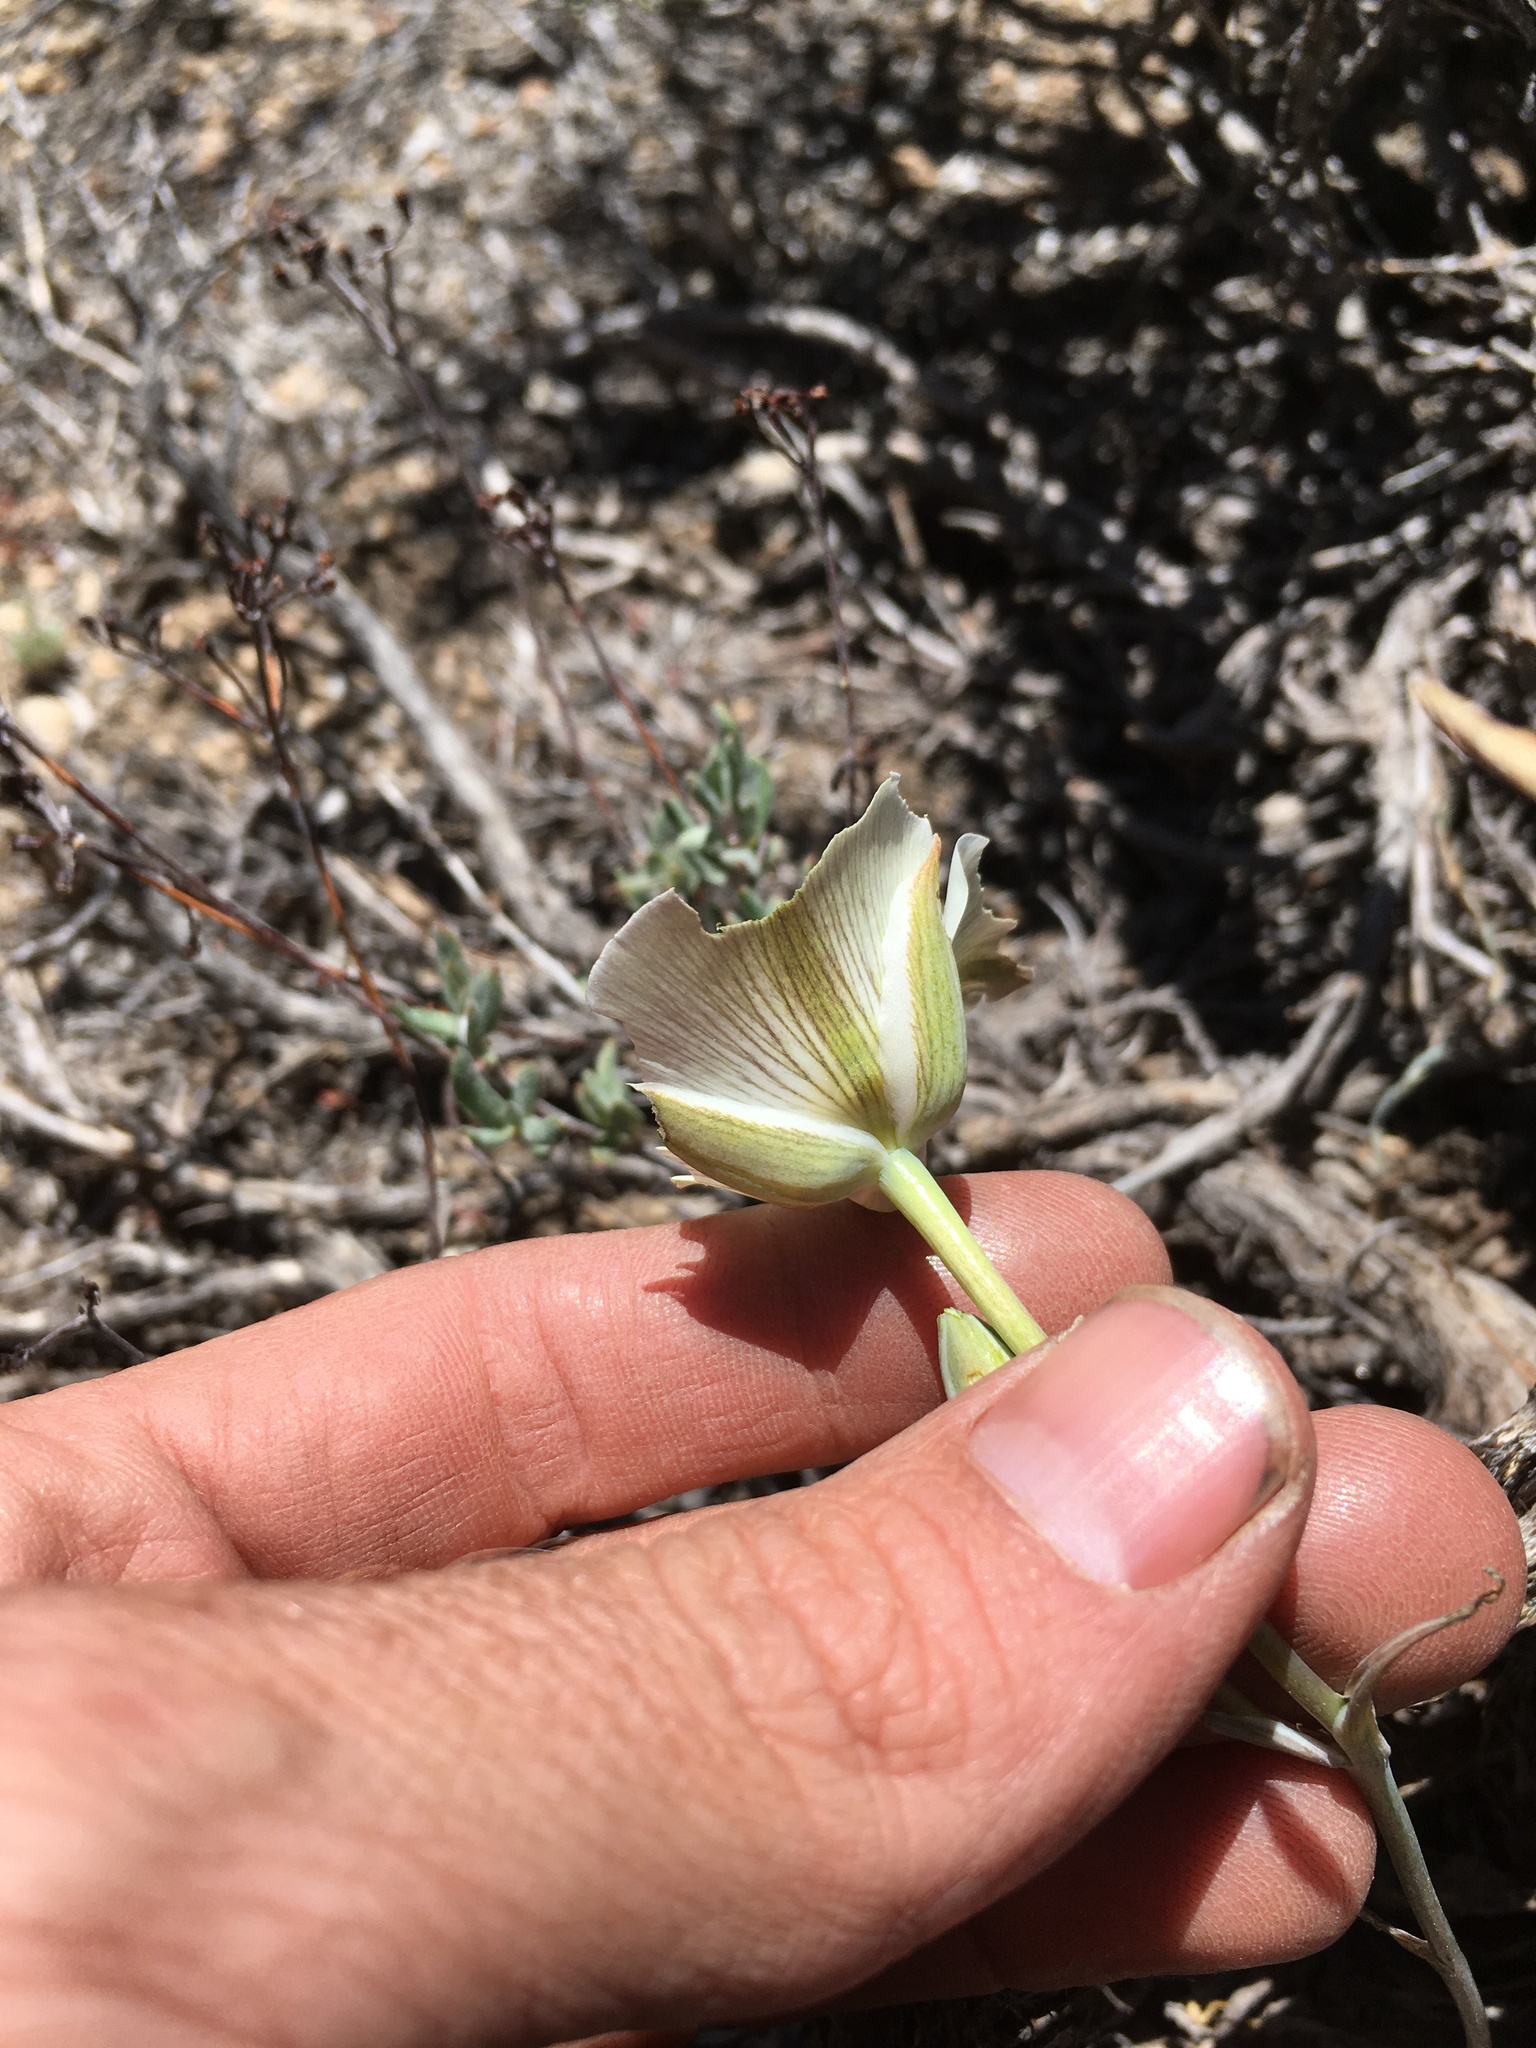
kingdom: Plantae
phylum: Tracheophyta
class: Liliopsida
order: Liliales
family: Liliaceae
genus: Calochortus
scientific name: Calochortus bruneaunis
